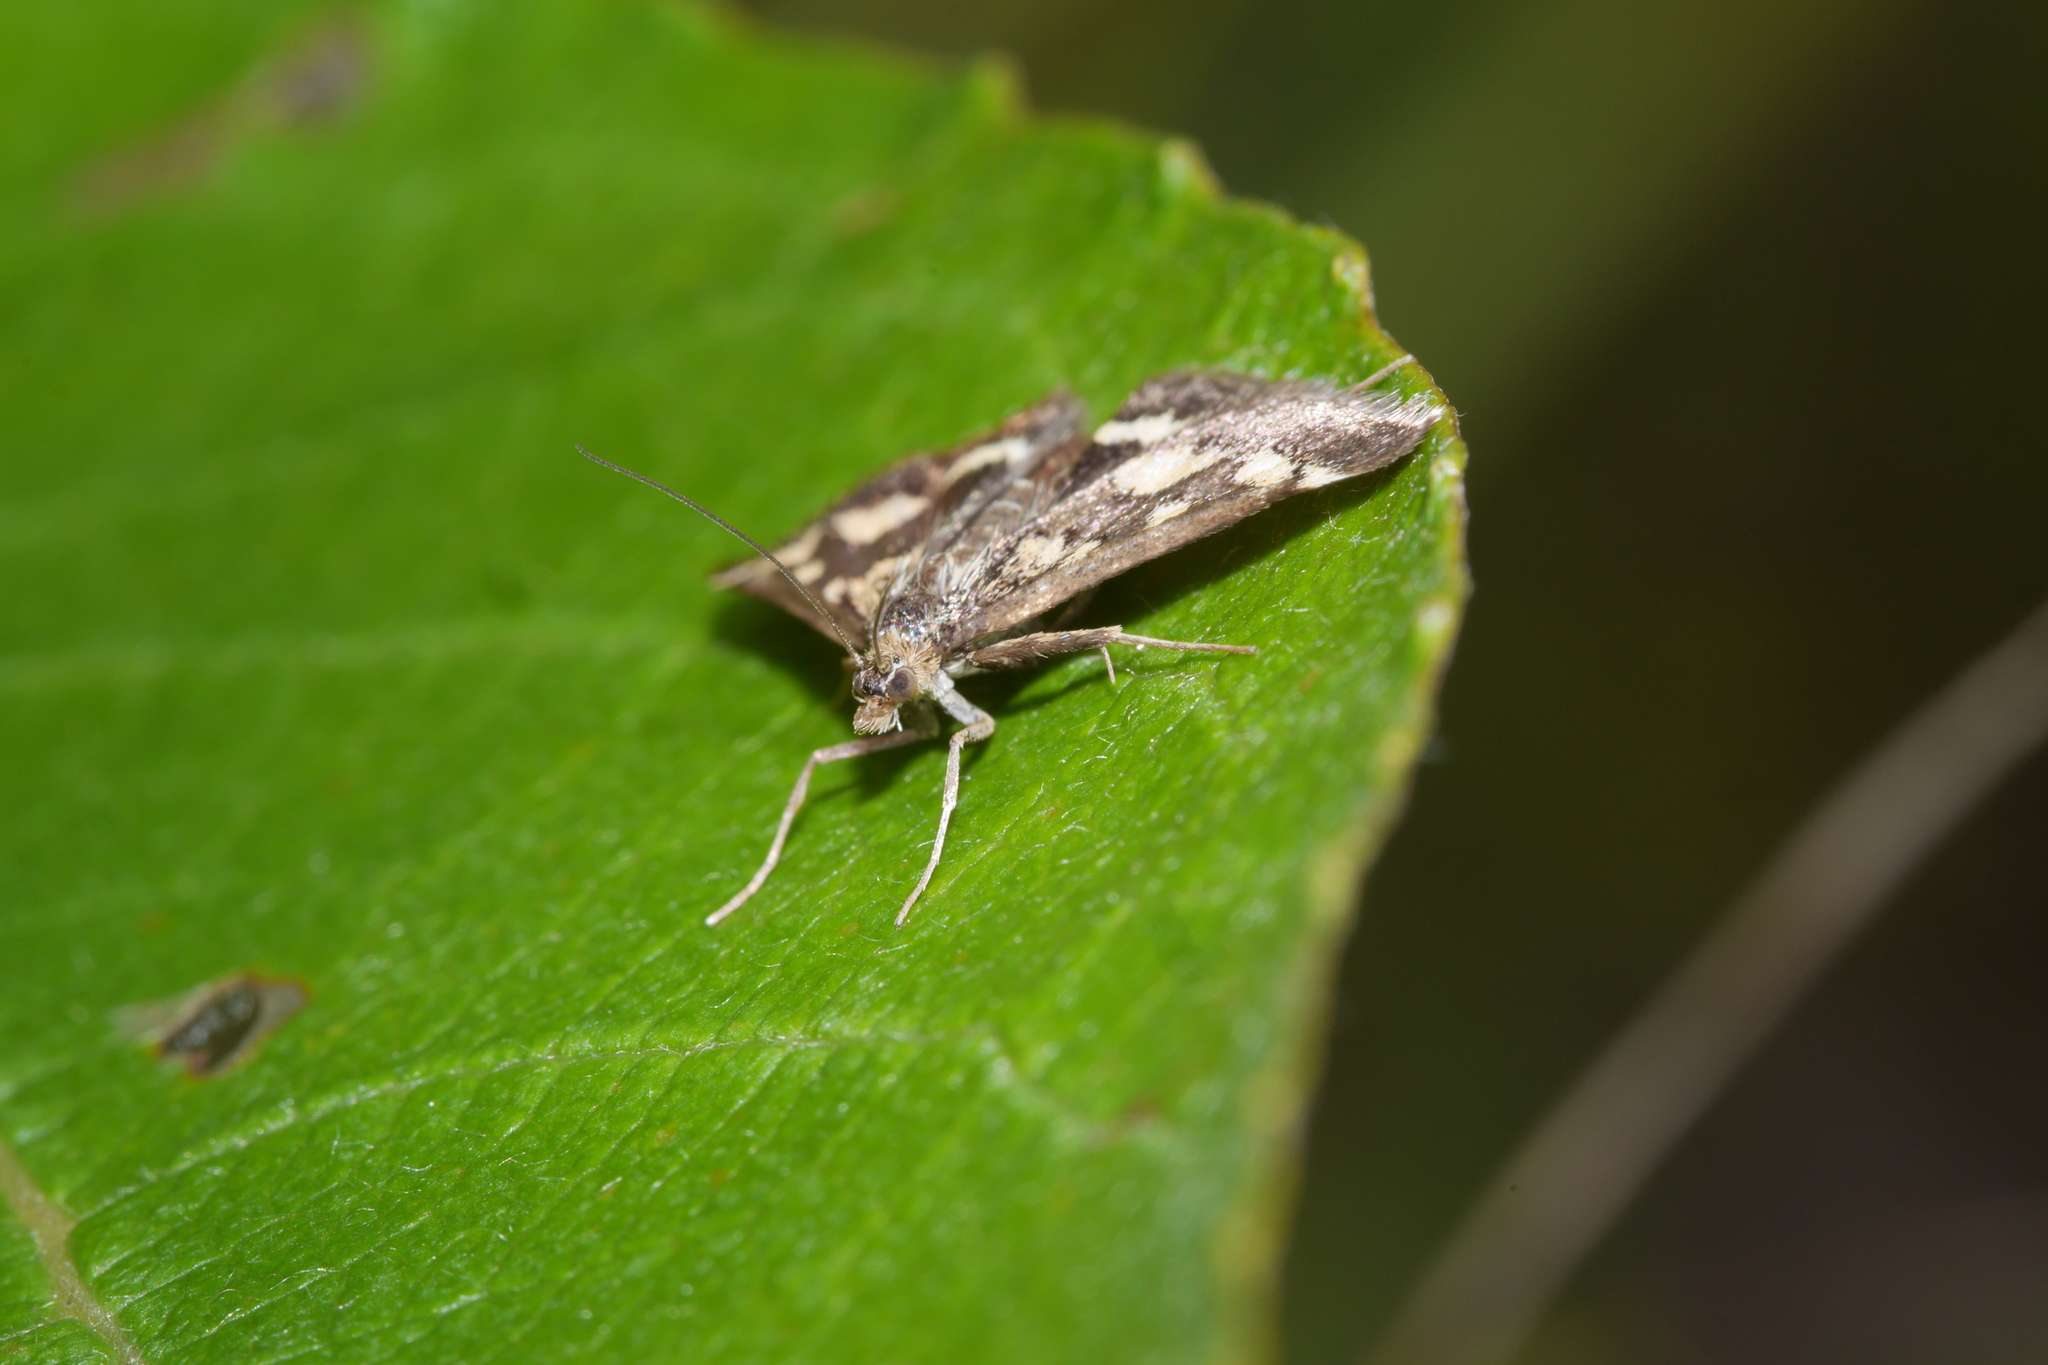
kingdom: Animalia
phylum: Arthropoda
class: Insecta
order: Lepidoptera
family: Crambidae
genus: Pyrausta
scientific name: Pyrausta purpuralis
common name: Common purple & gold
